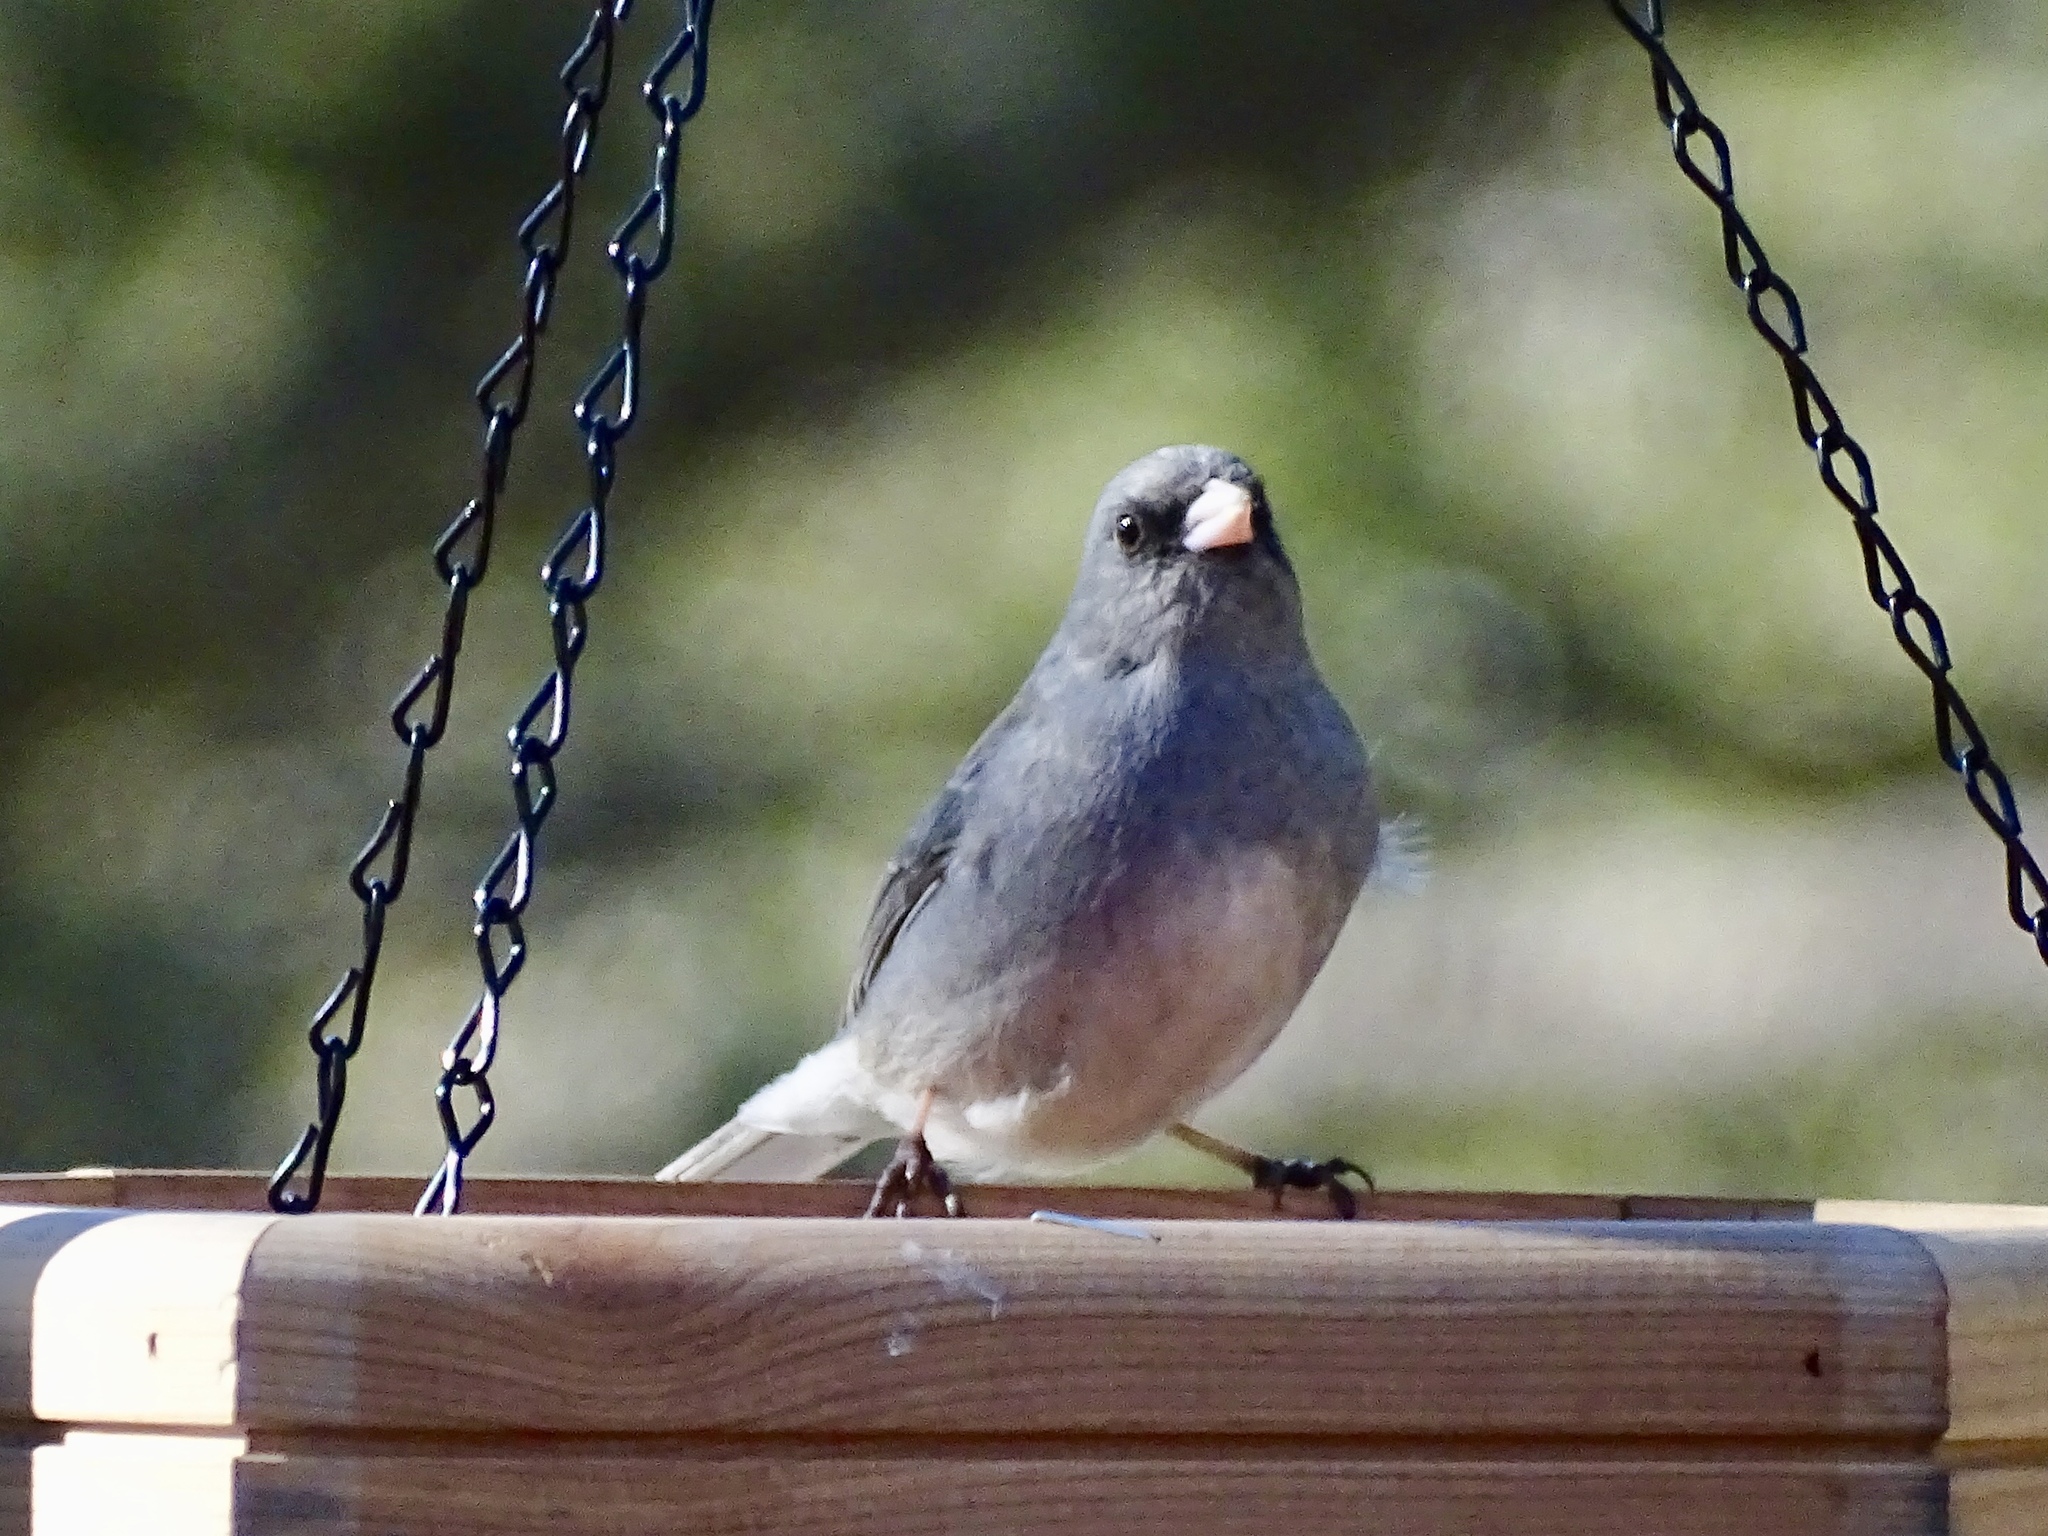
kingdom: Animalia
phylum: Chordata
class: Aves
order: Passeriformes
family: Passerellidae
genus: Junco
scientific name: Junco hyemalis
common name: Dark-eyed junco
